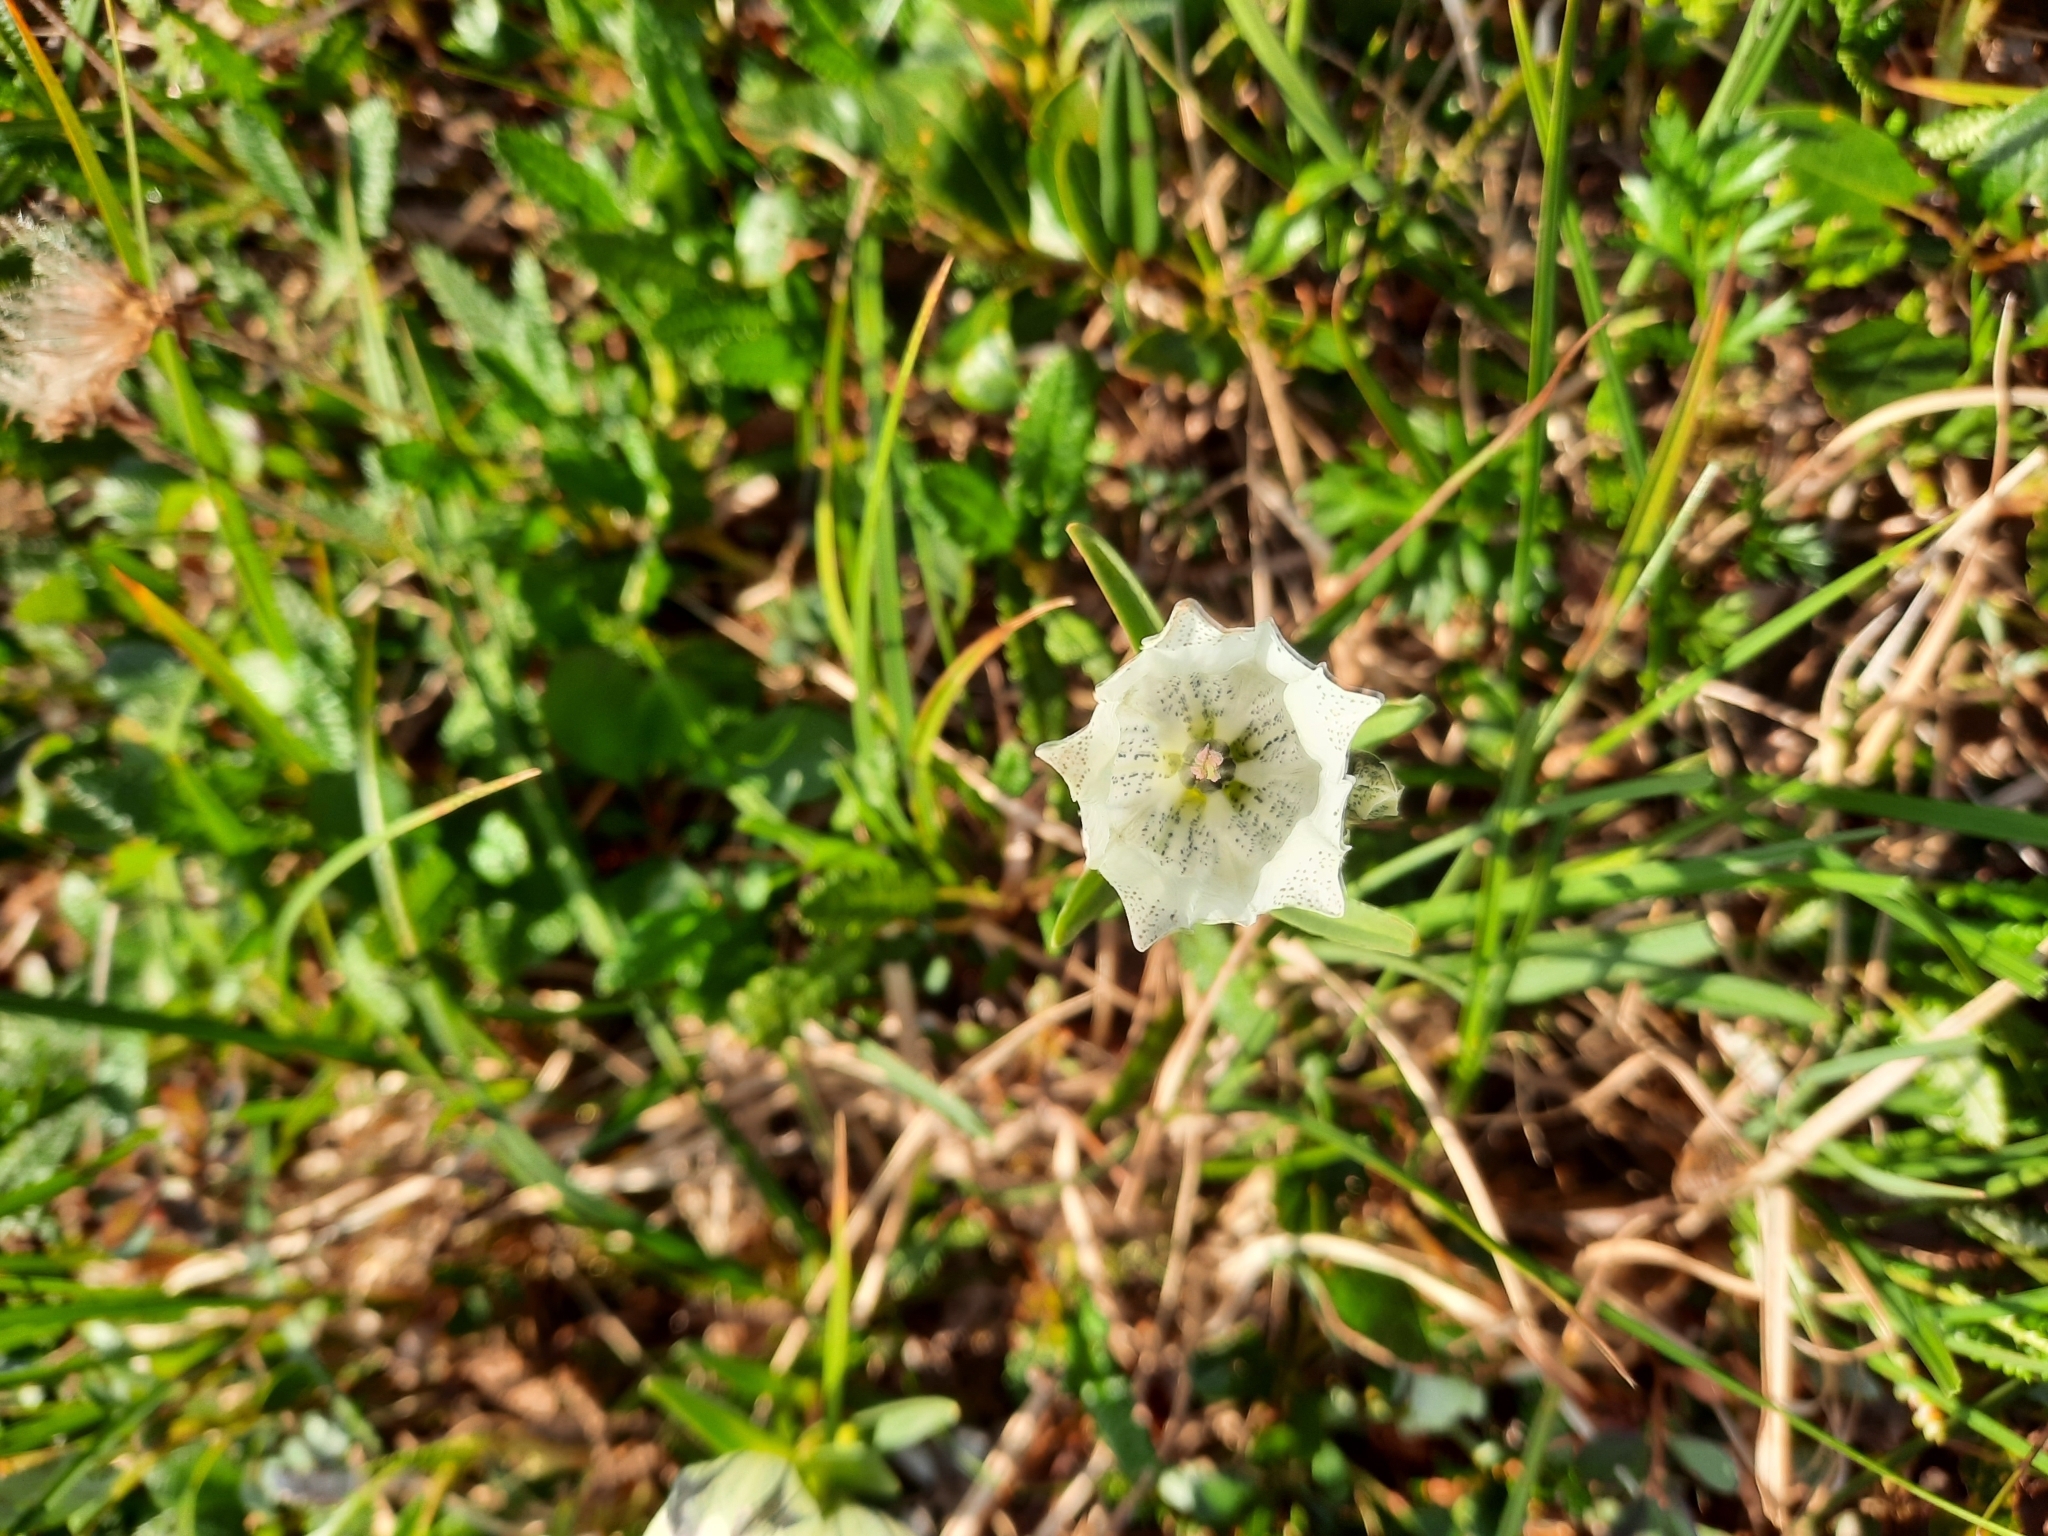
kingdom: Plantae
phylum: Tracheophyta
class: Magnoliopsida
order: Gentianales
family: Gentianaceae
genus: Gentiana
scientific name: Gentiana algida
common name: Arctic gentian
